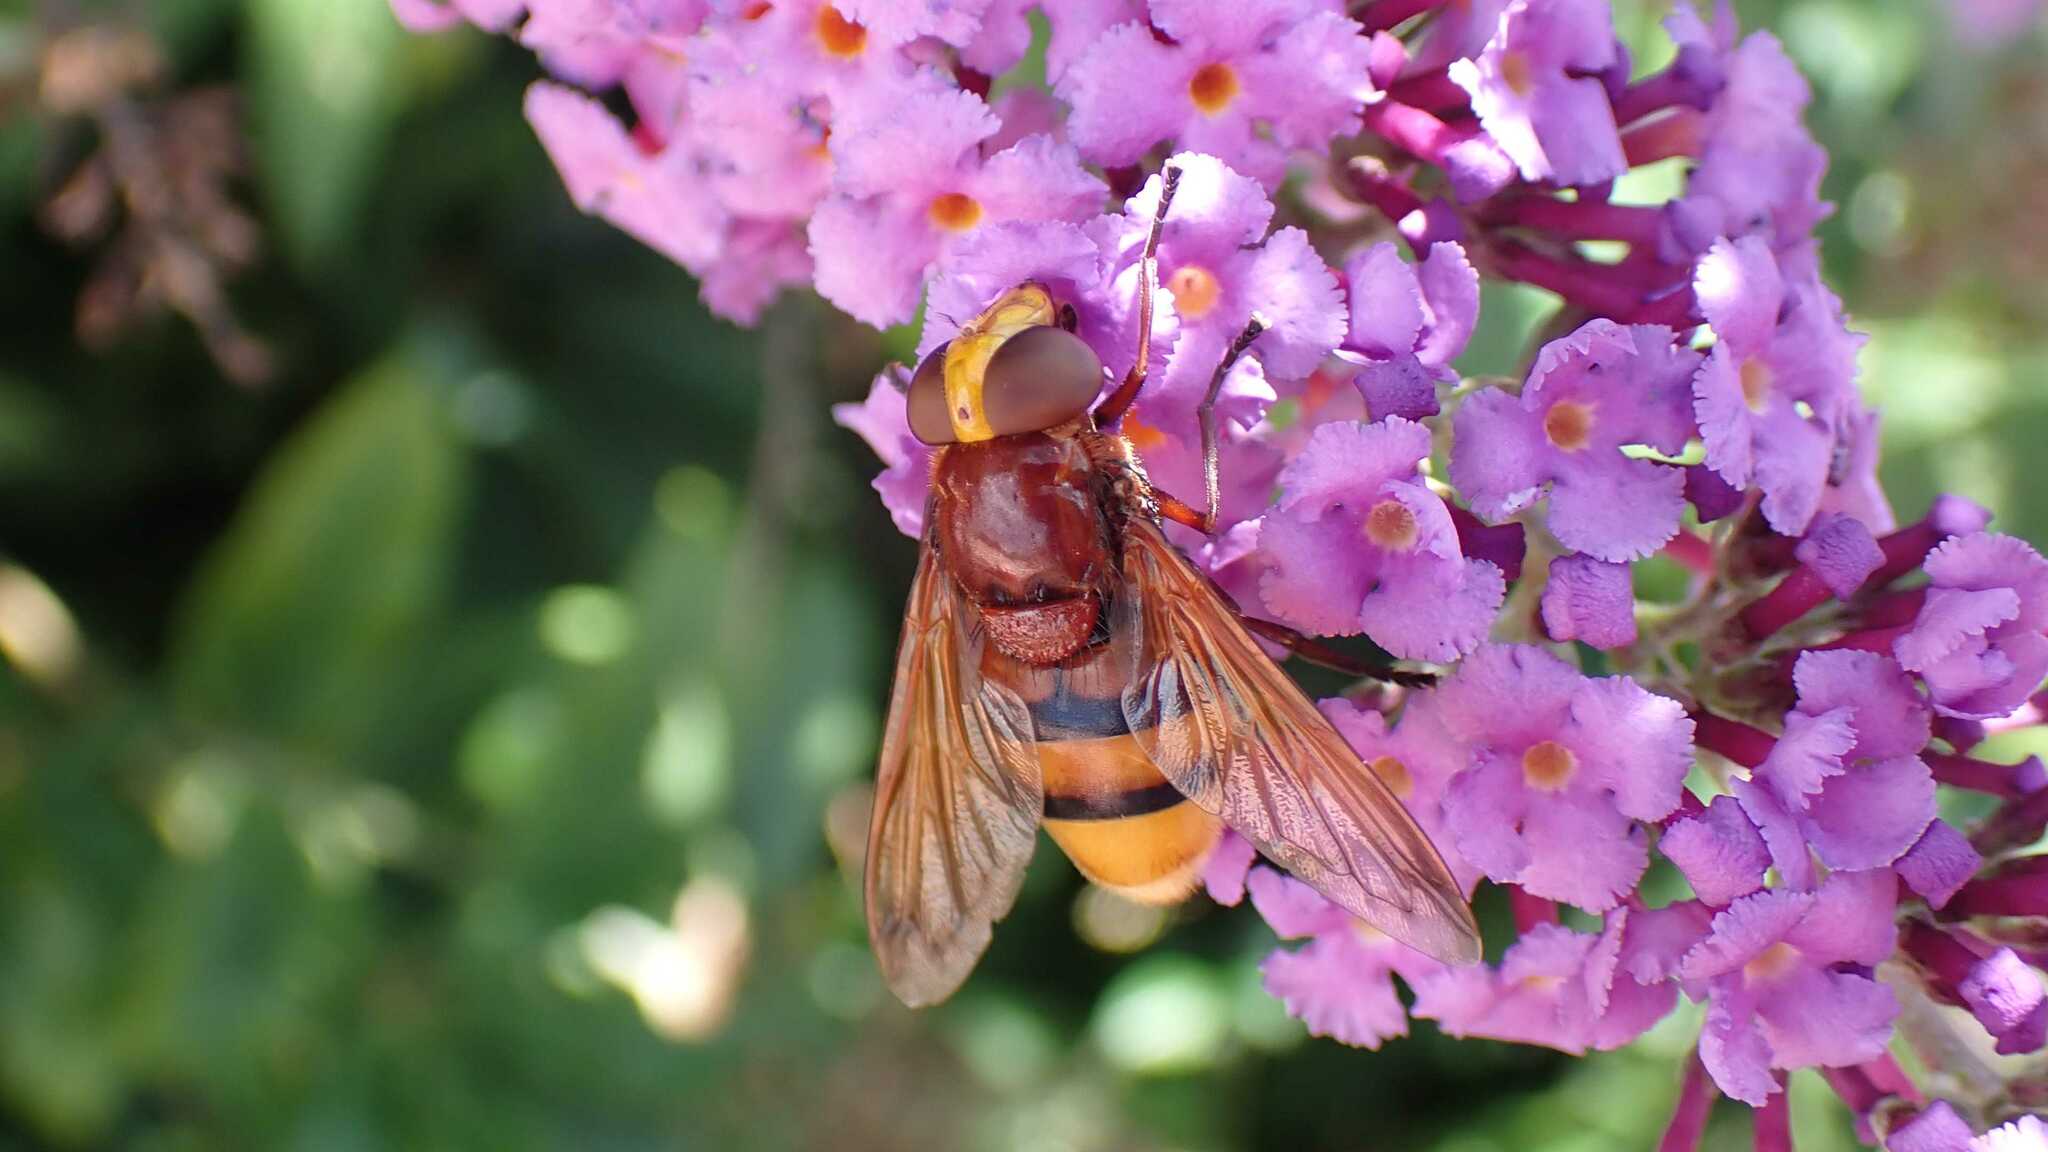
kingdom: Animalia
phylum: Arthropoda
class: Insecta
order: Diptera
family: Syrphidae
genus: Volucella
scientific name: Volucella zonaria
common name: Hornet hoverfly
